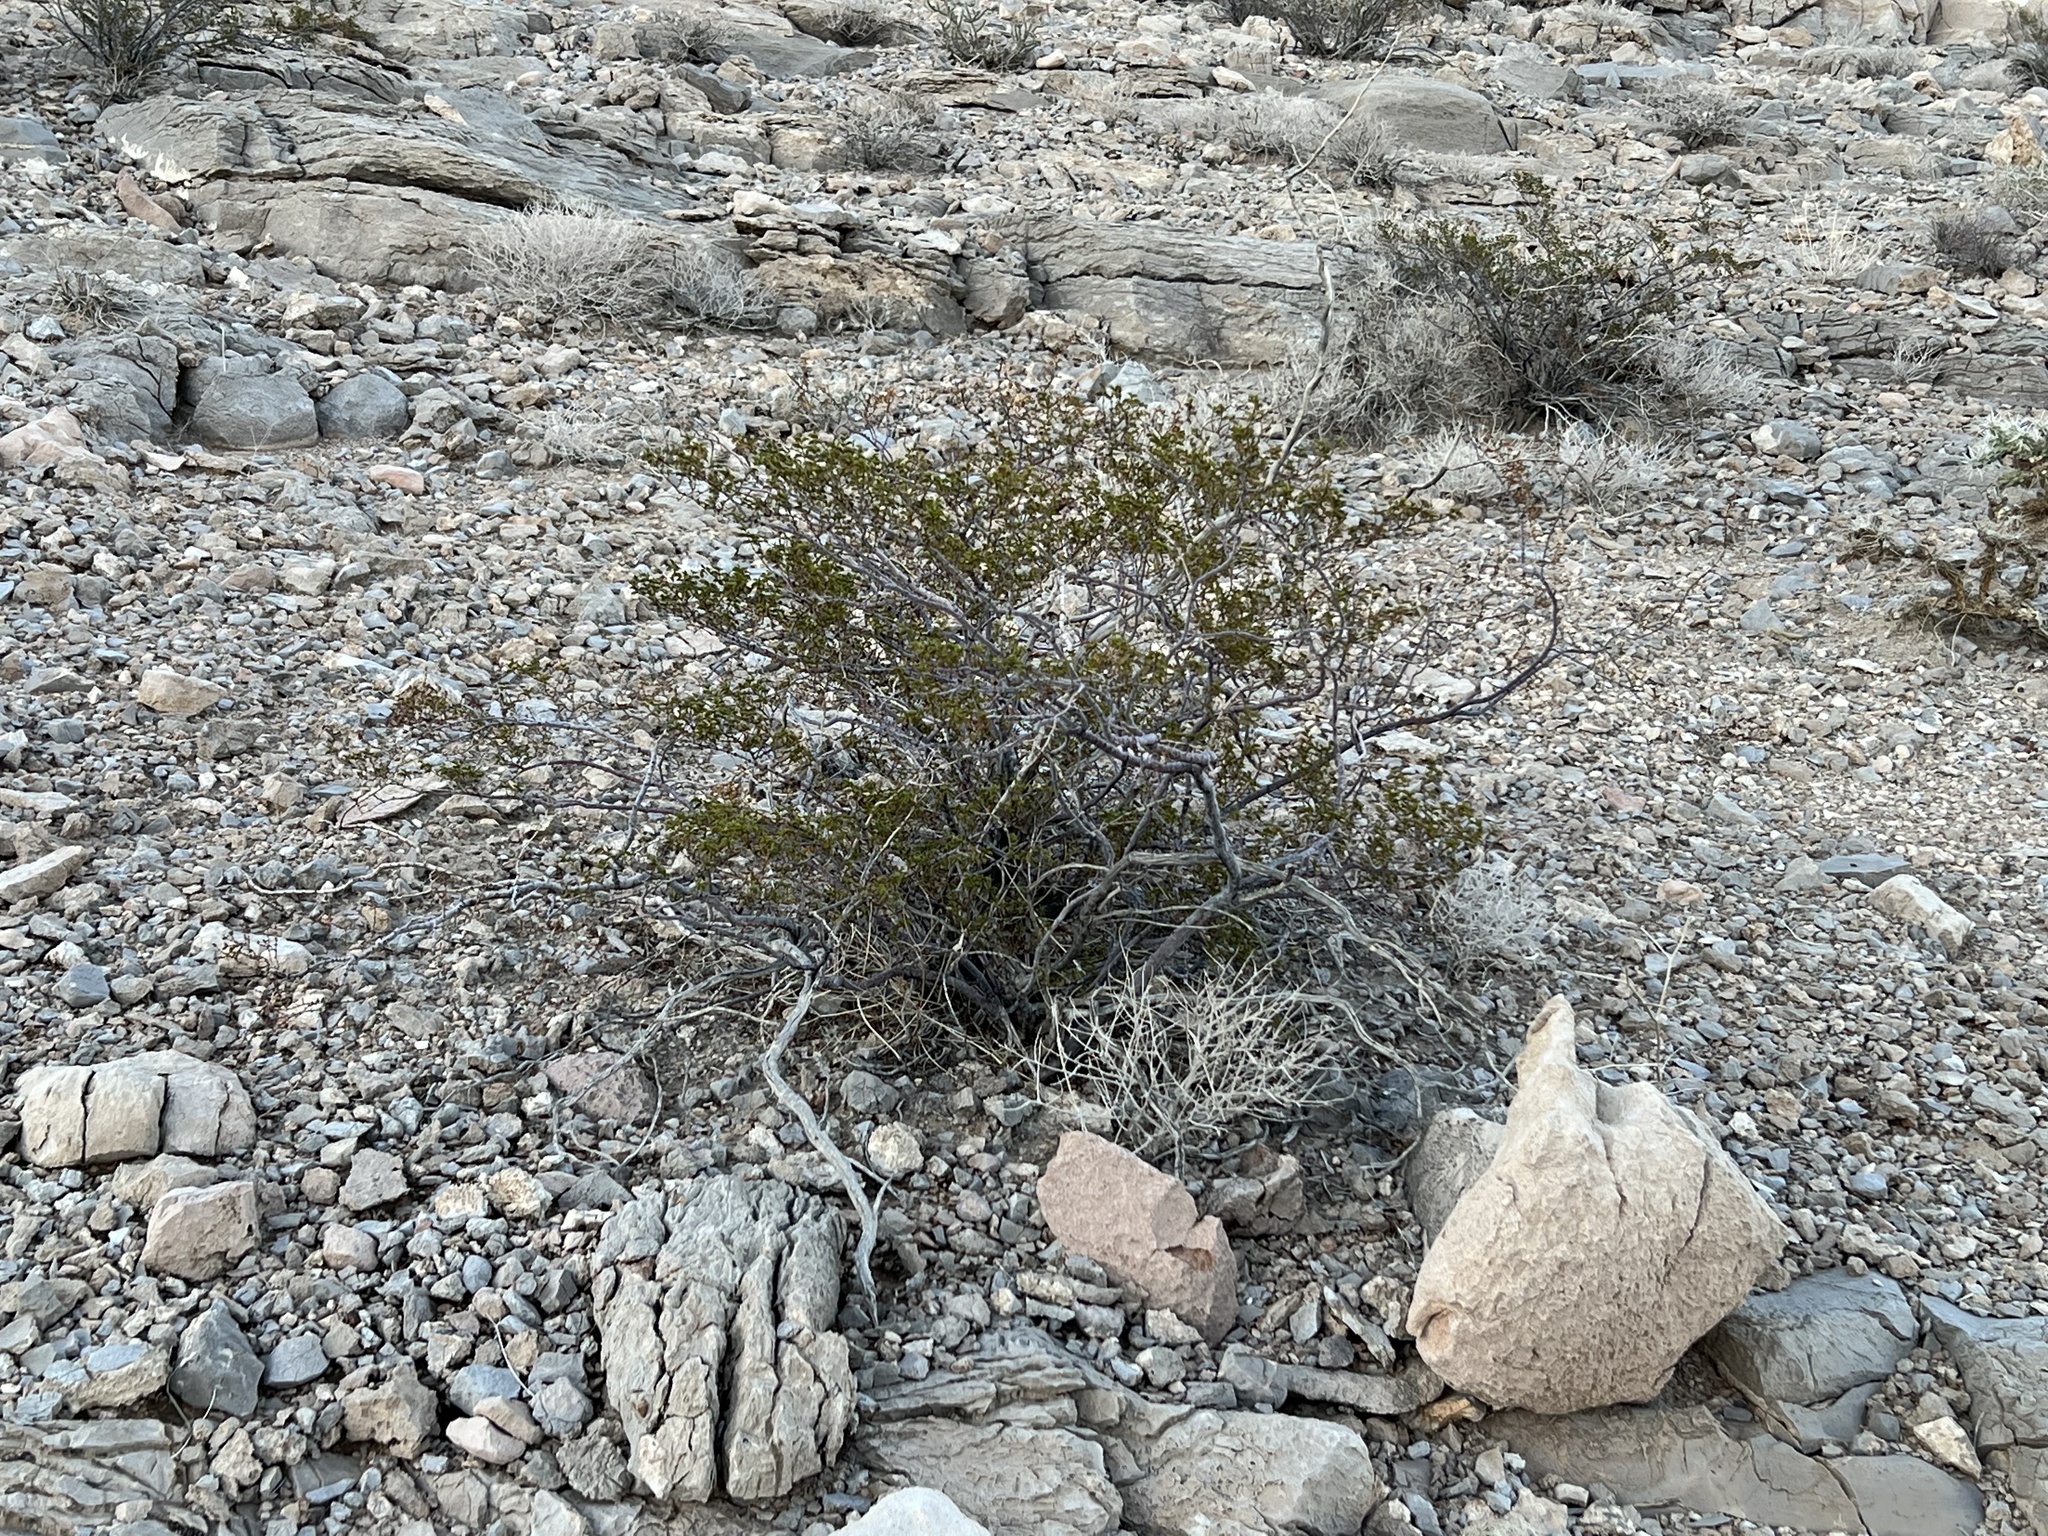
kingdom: Plantae
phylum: Tracheophyta
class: Magnoliopsida
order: Zygophyllales
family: Zygophyllaceae
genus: Larrea
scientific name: Larrea tridentata
